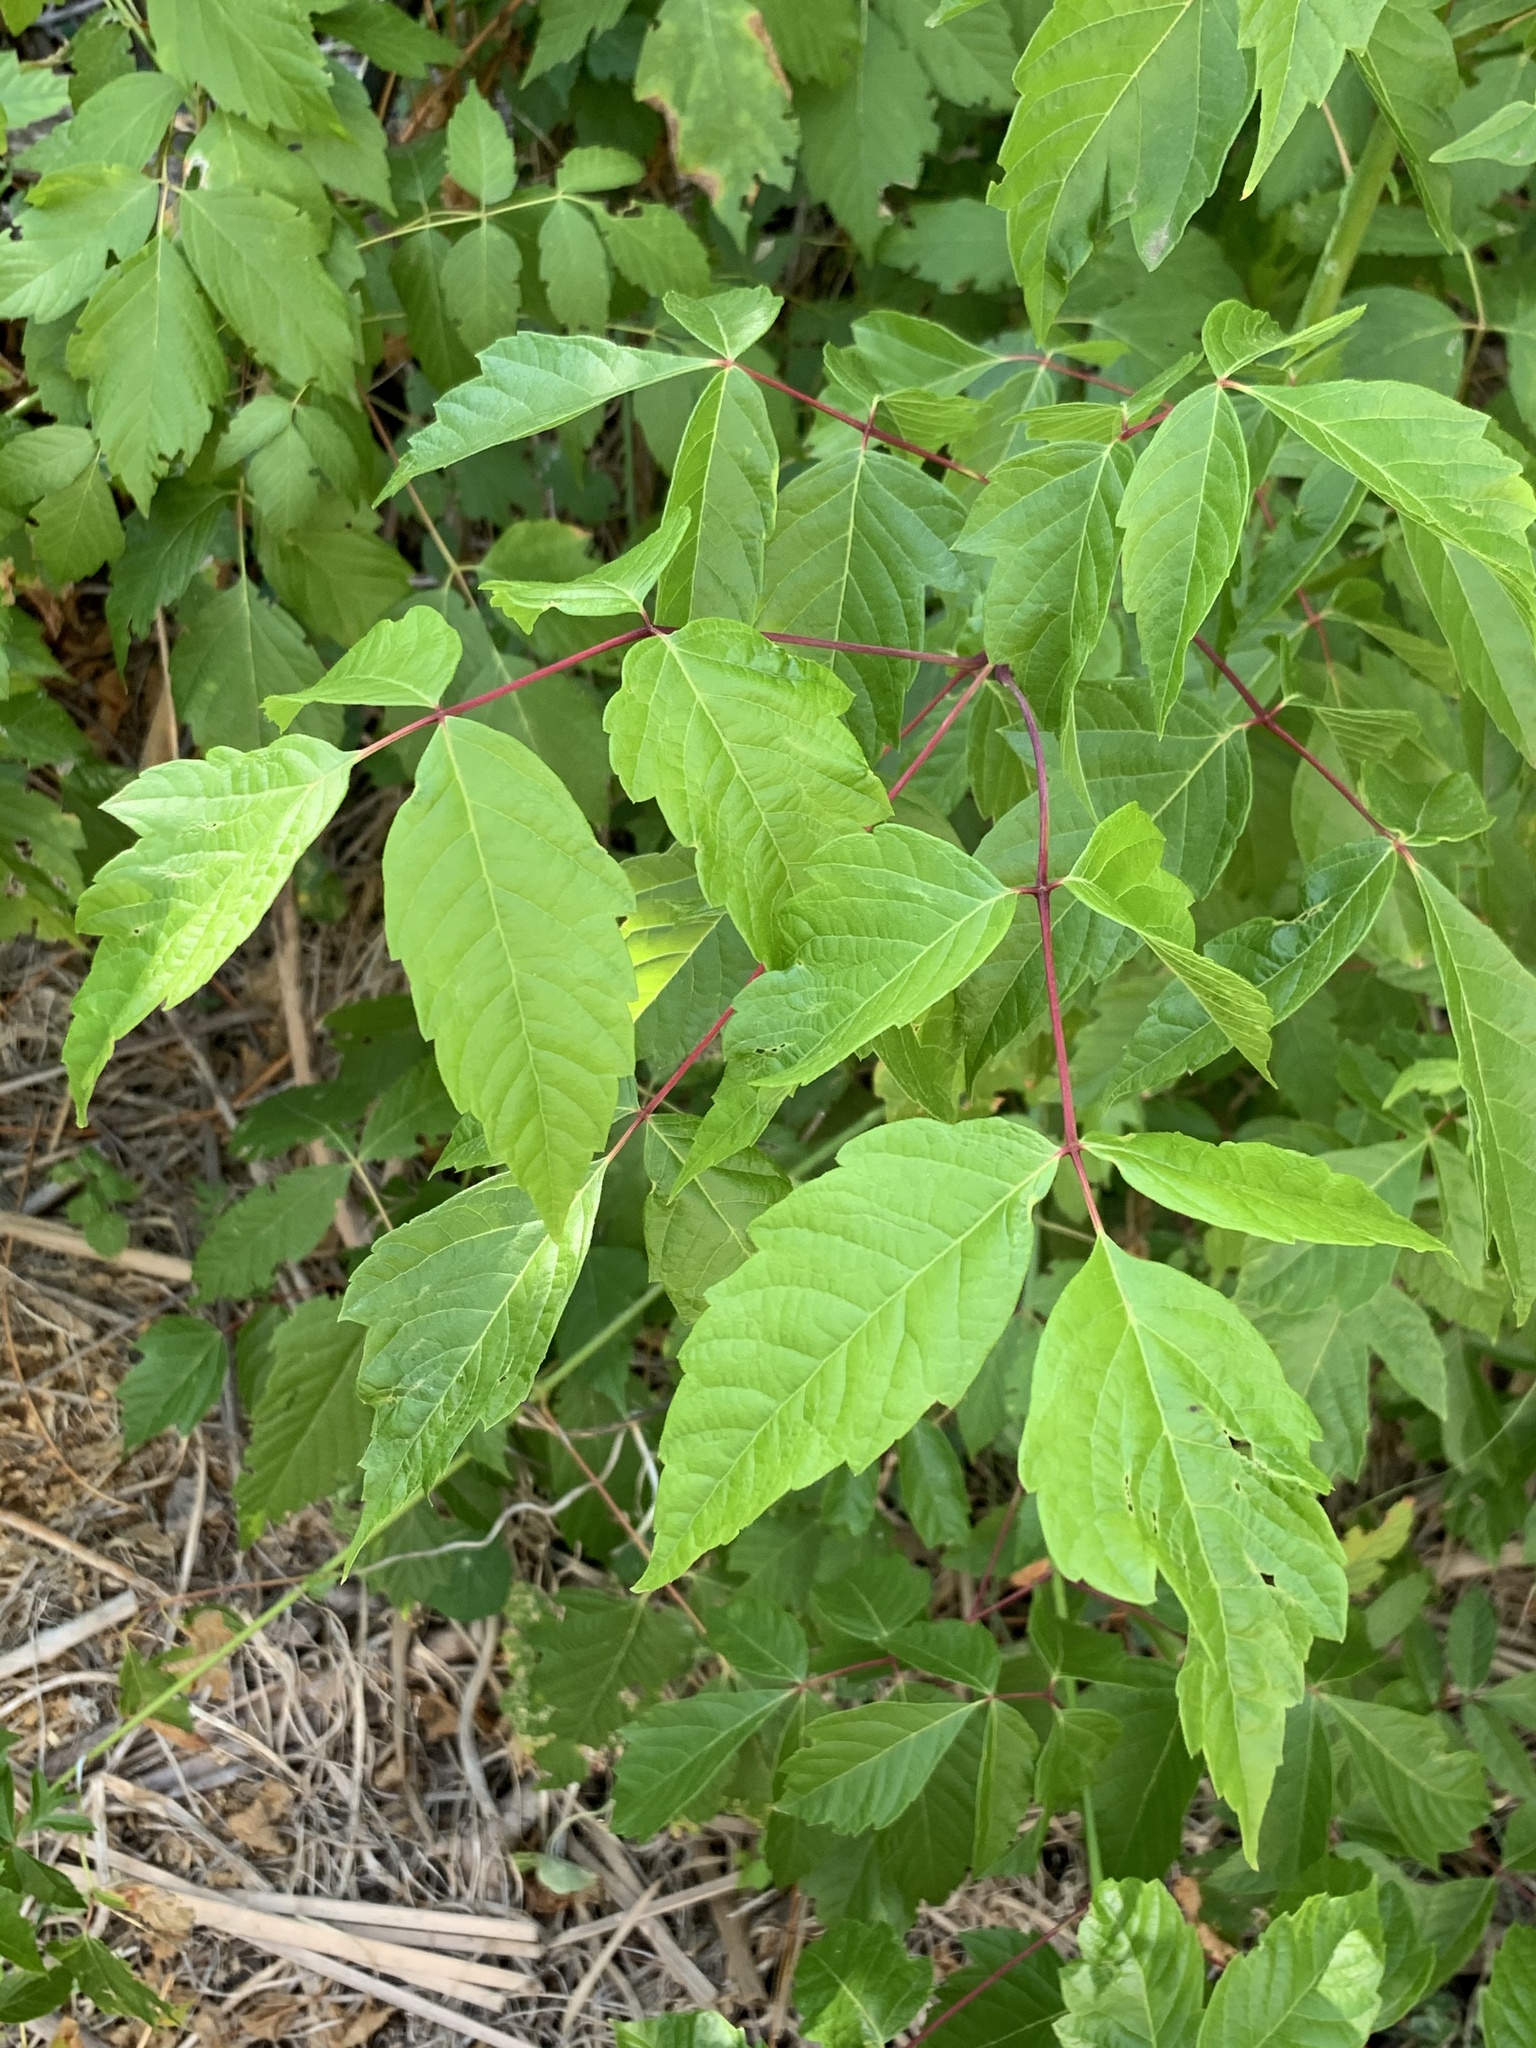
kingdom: Plantae
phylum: Tracheophyta
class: Magnoliopsida
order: Sapindales
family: Sapindaceae
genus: Acer
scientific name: Acer negundo
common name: Ashleaf maple
